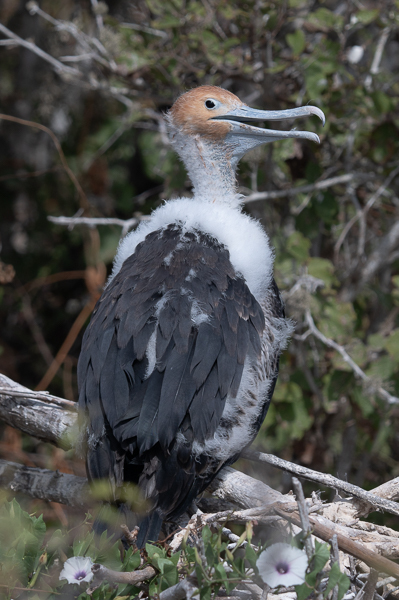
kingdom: Animalia
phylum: Chordata
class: Aves
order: Suliformes
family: Fregatidae
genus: Fregata
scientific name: Fregata minor
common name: Great frigatebird
